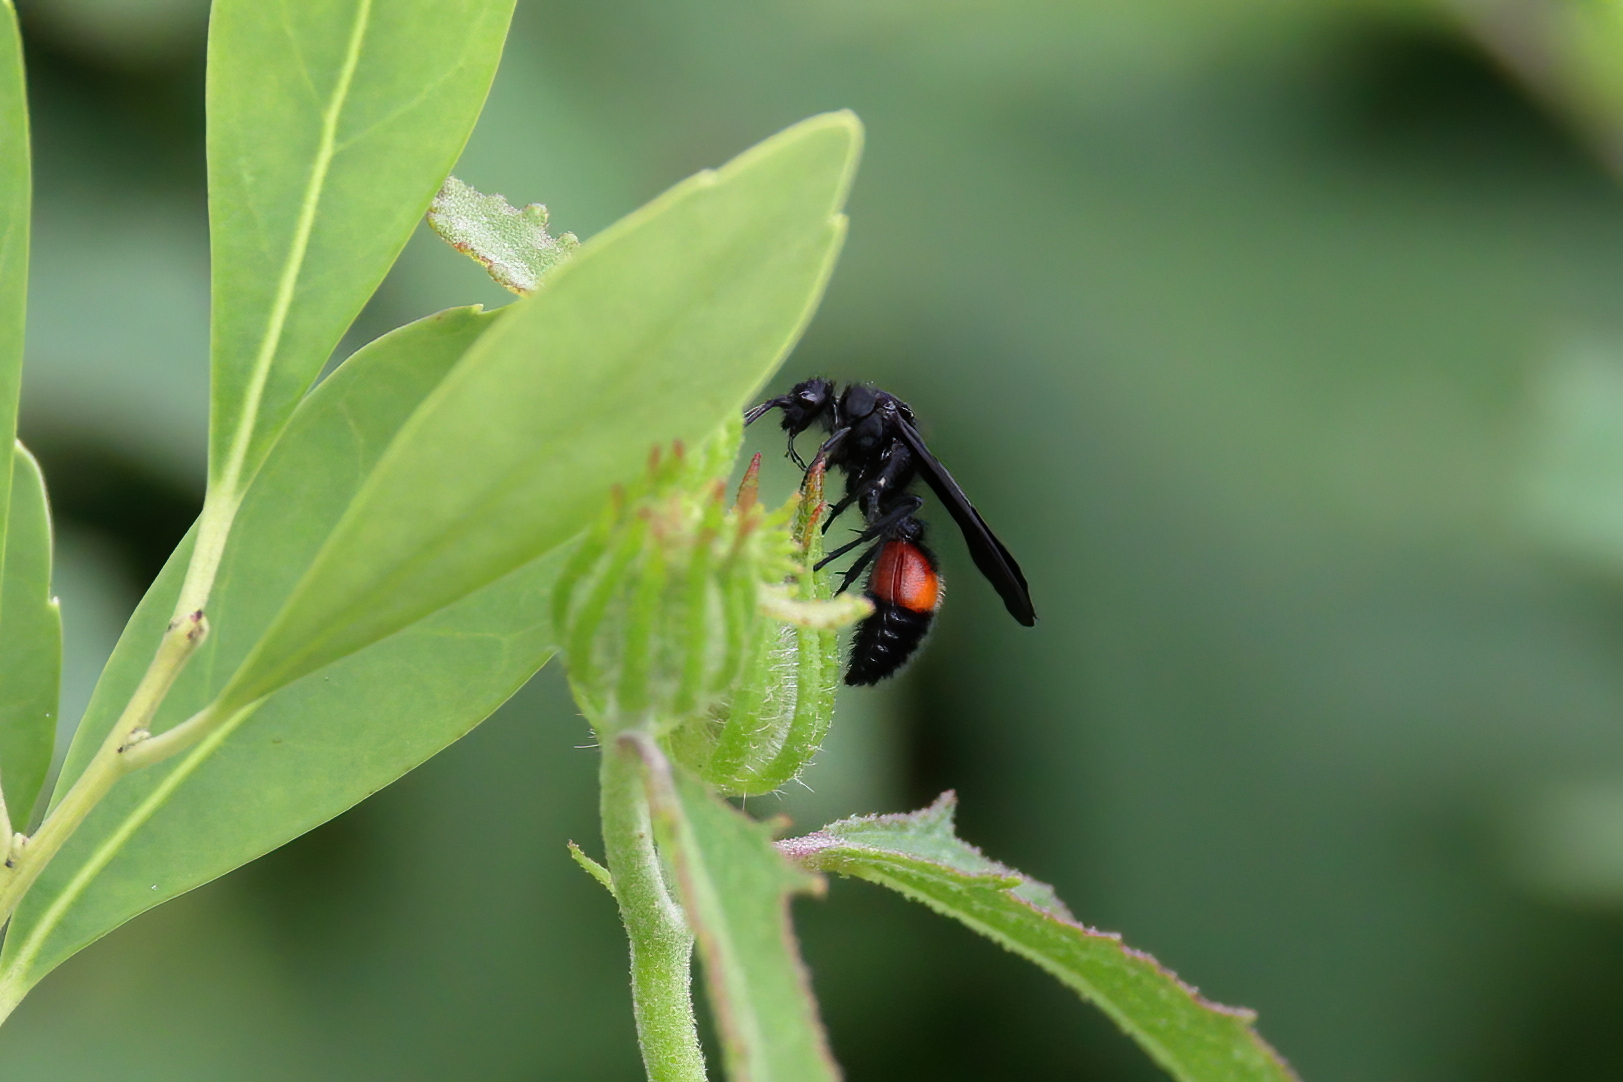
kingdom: Animalia
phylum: Arthropoda
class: Insecta
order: Hymenoptera
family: Mutillidae
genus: Dasymutilla
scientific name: Dasymutilla
